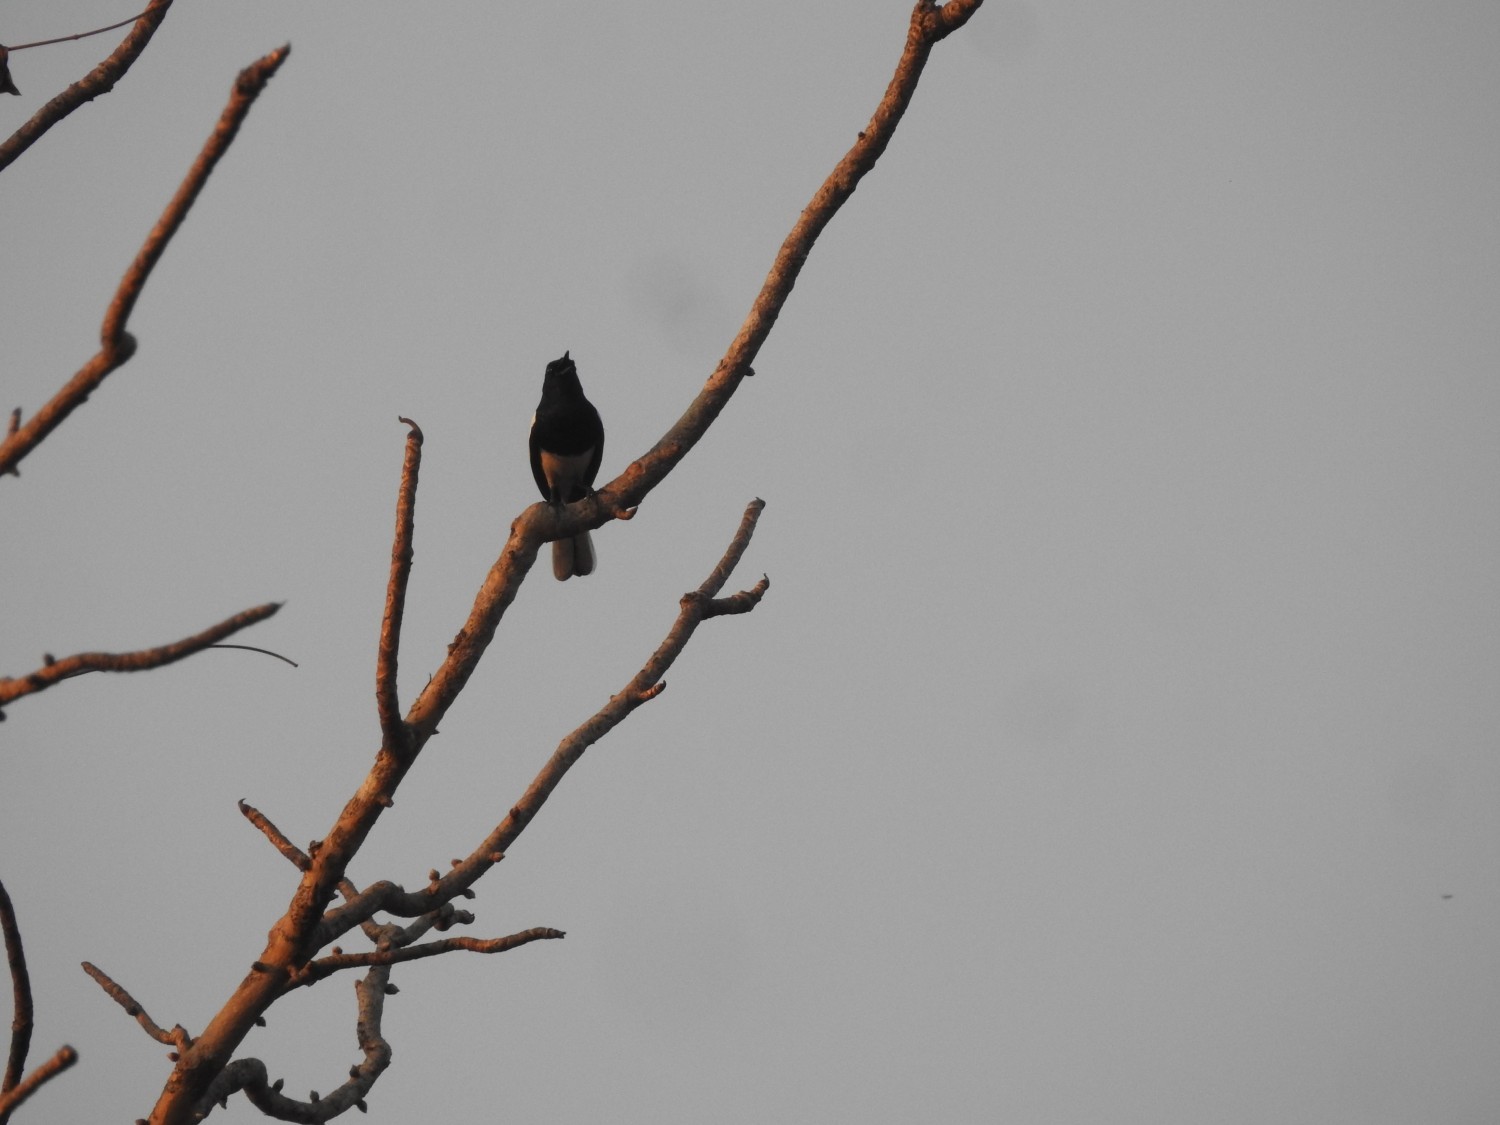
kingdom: Animalia
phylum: Chordata
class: Aves
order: Passeriformes
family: Muscicapidae
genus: Copsychus
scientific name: Copsychus saularis
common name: Oriental magpie-robin
